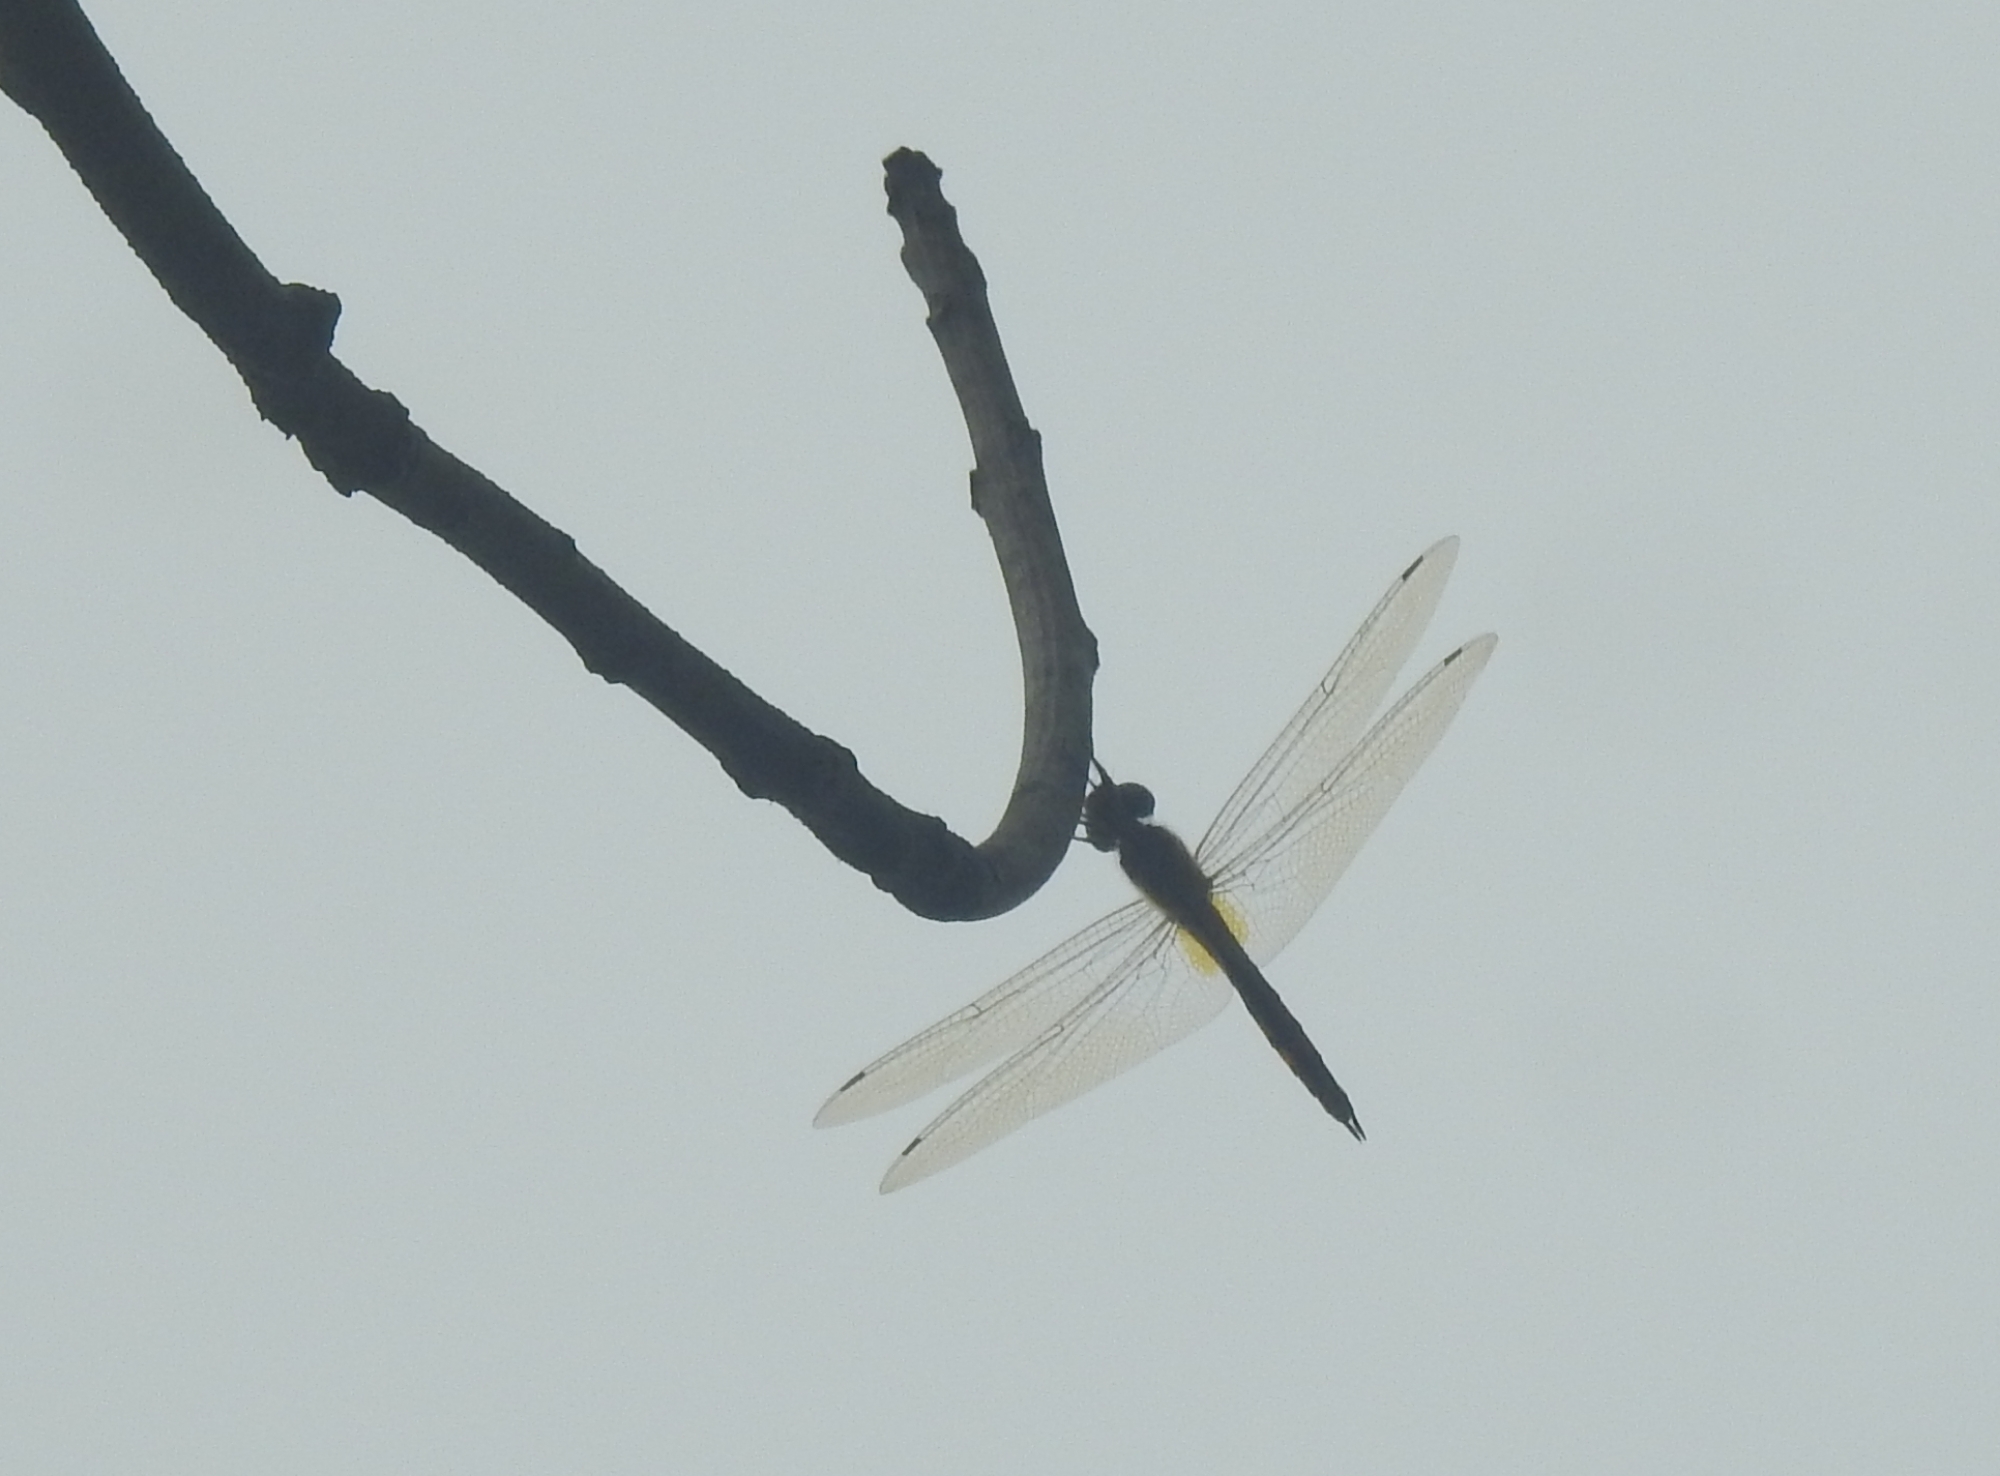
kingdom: Animalia
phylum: Arthropoda
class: Insecta
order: Odonata
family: Libellulidae
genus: Pantala
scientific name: Pantala flavescens
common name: Wandering glider
